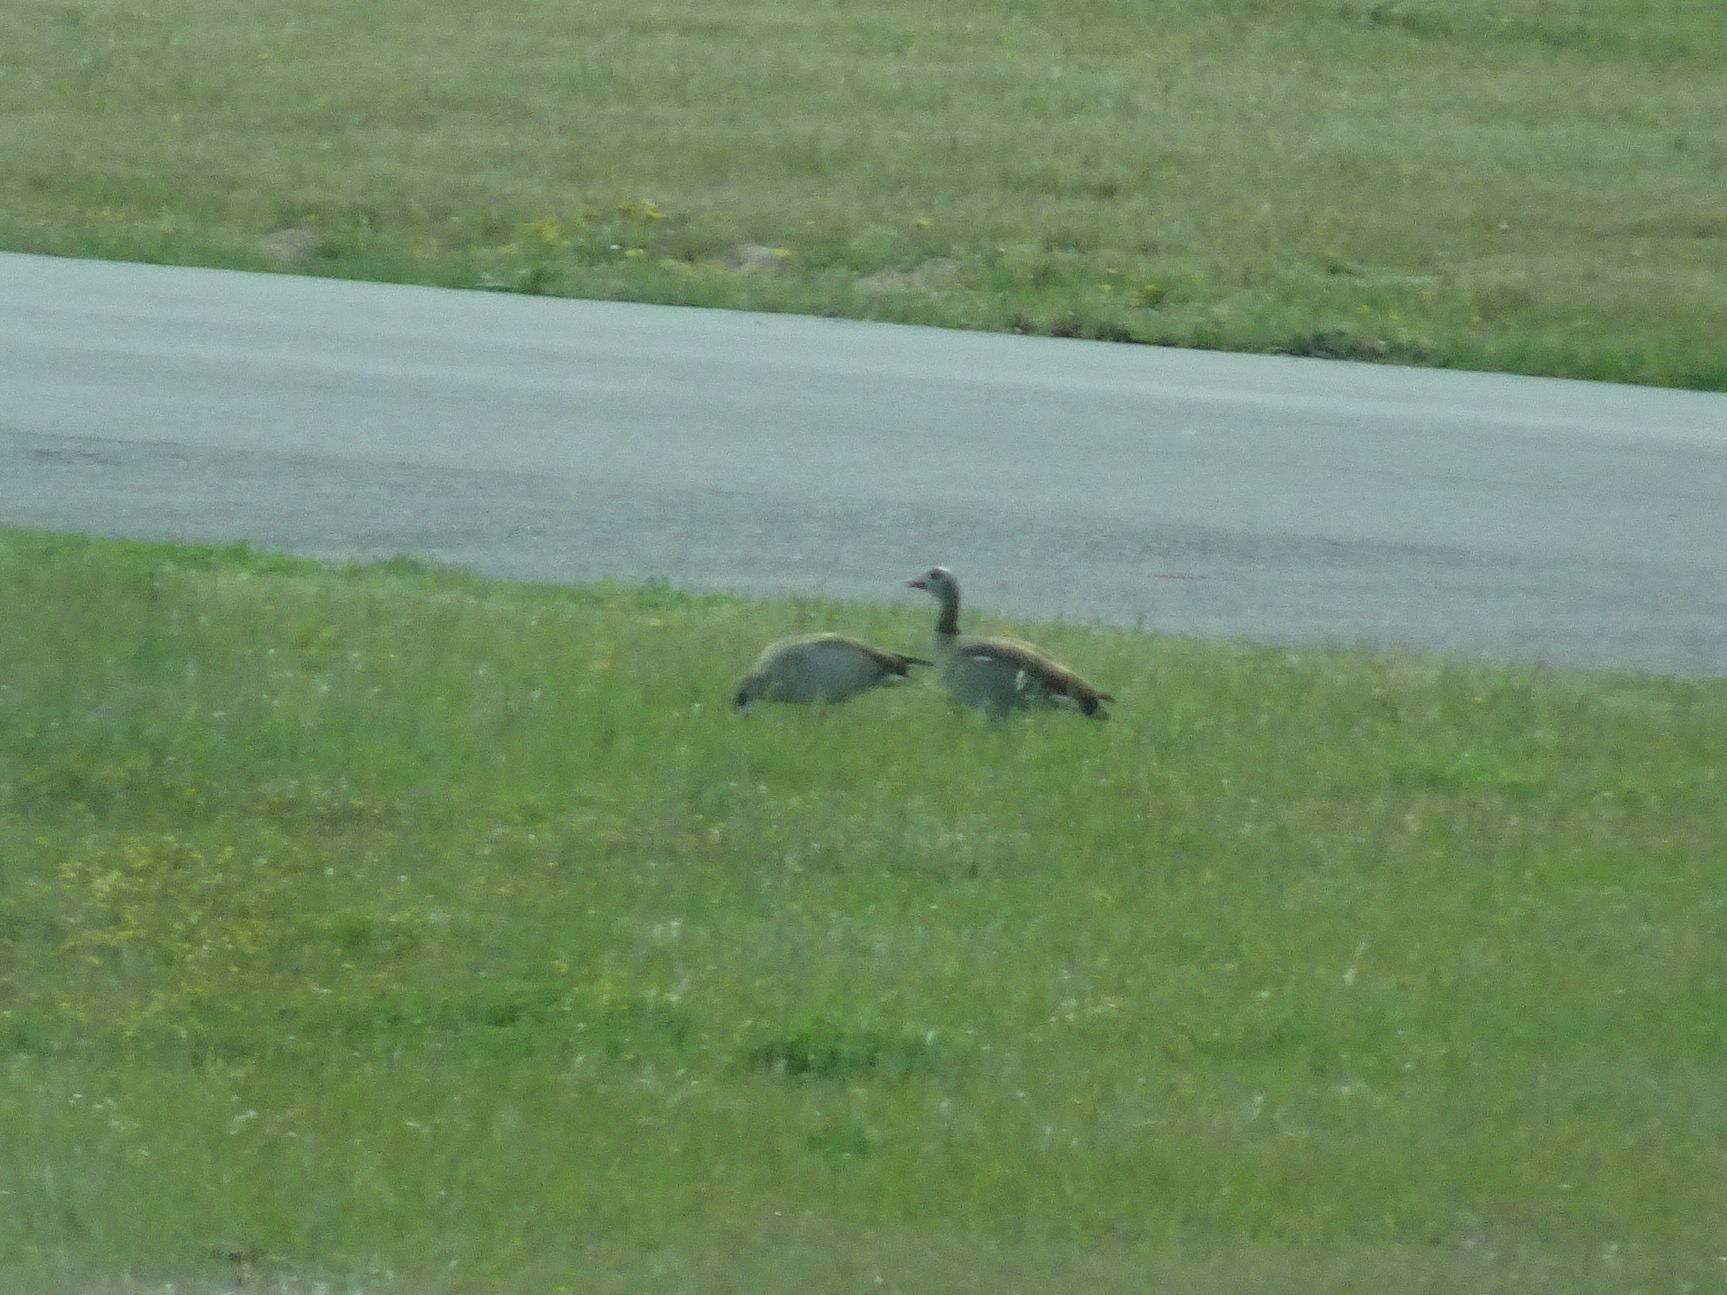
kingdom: Animalia
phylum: Chordata
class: Aves
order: Anseriformes
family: Anatidae
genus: Alopochen
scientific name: Alopochen aegyptiaca
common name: Egyptian goose
